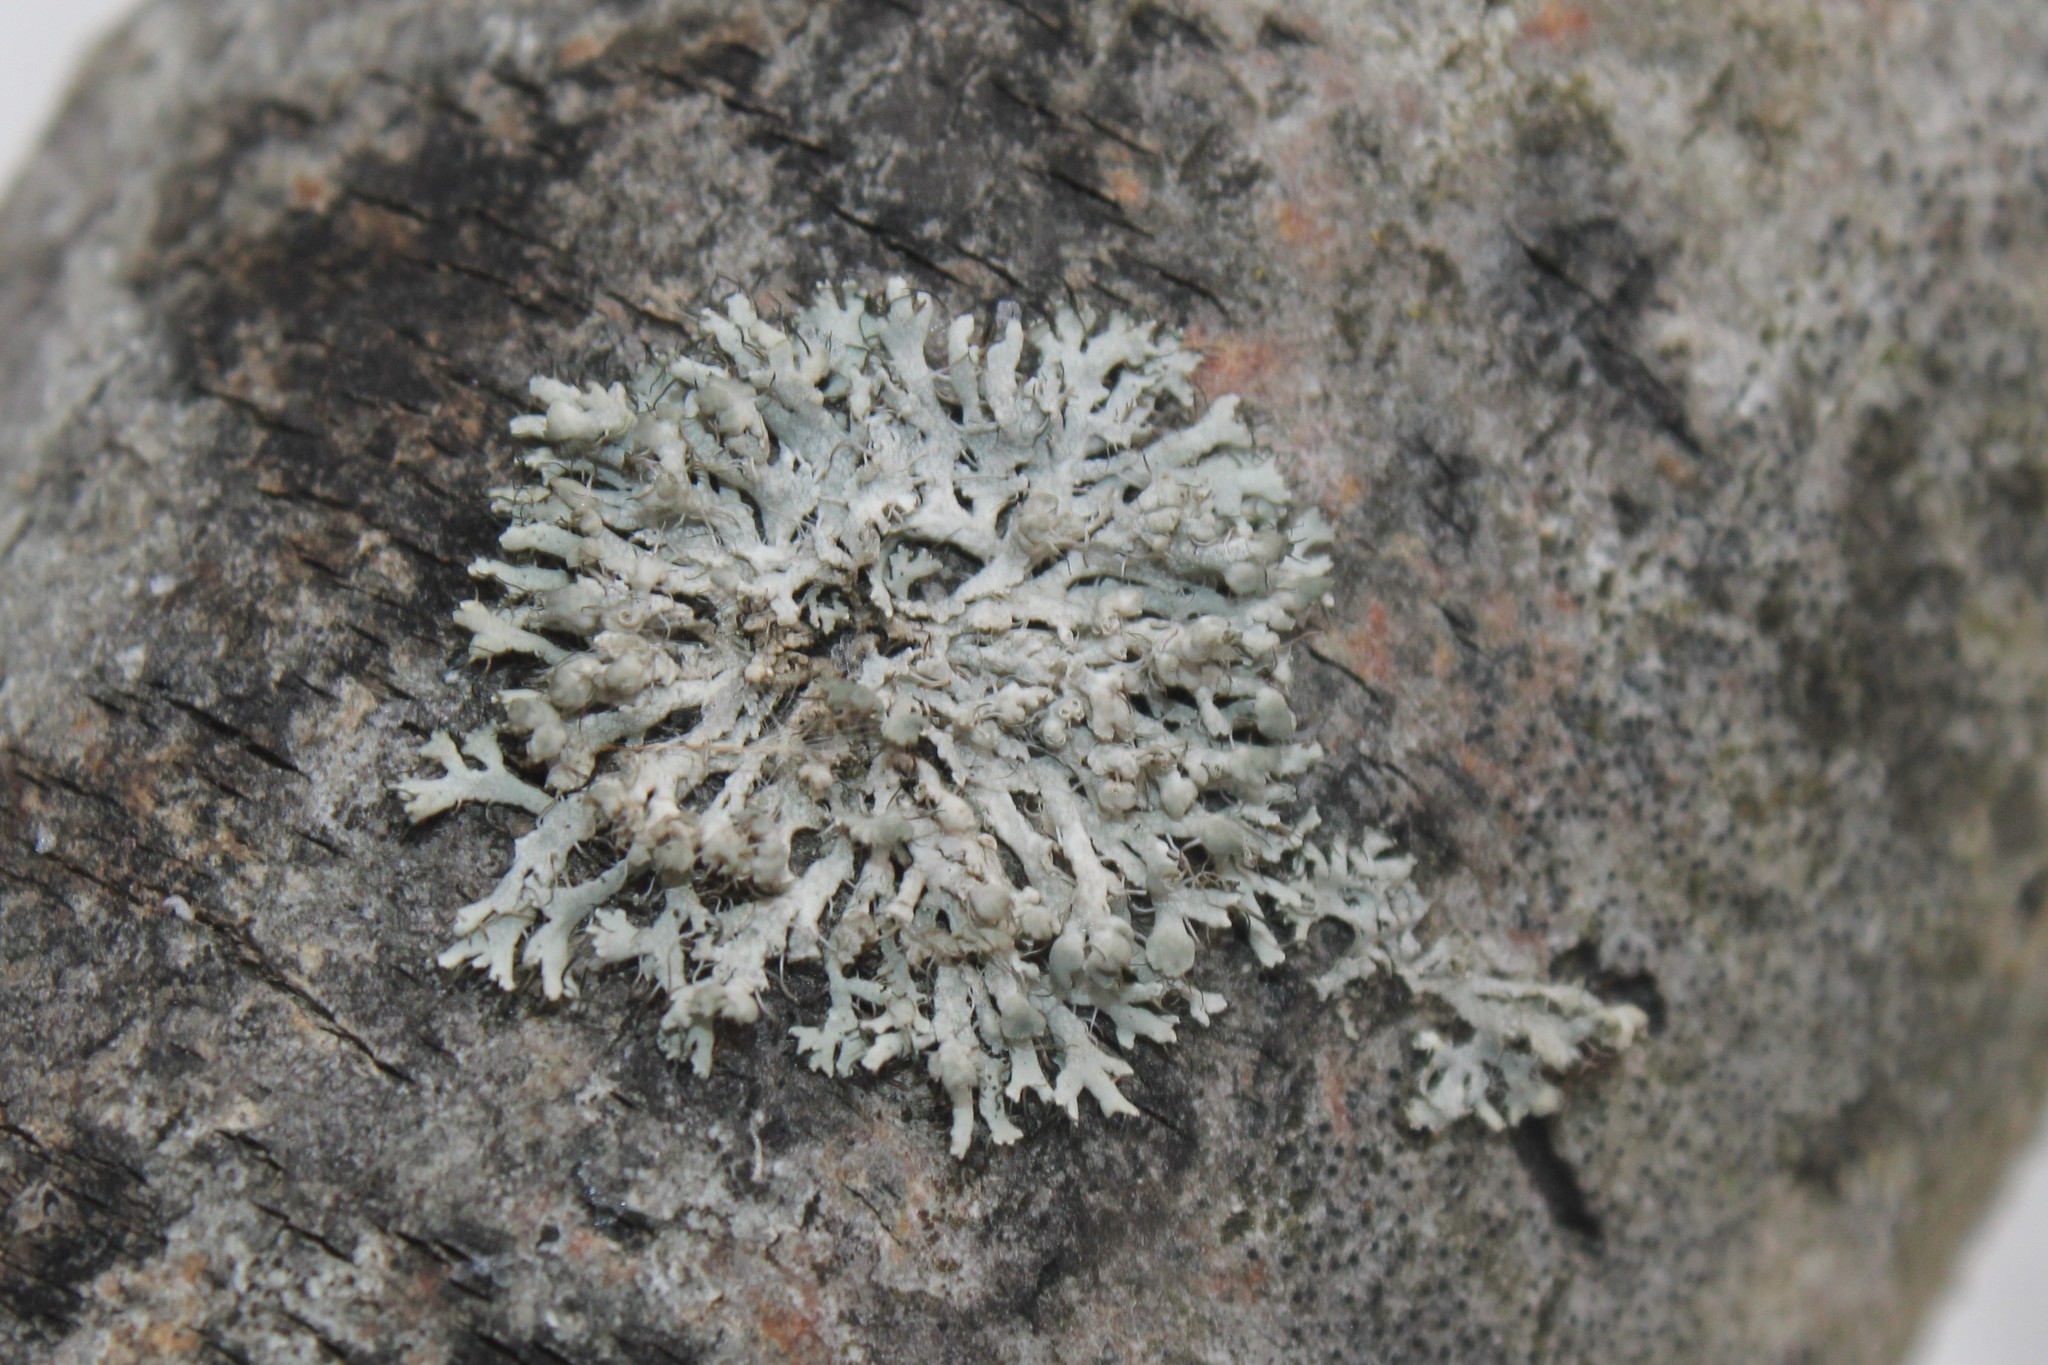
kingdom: Fungi
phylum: Ascomycota
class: Lecanoromycetes
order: Caliciales
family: Physciaceae
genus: Physcia
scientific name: Physcia adscendens
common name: Hooded rosette lichen
